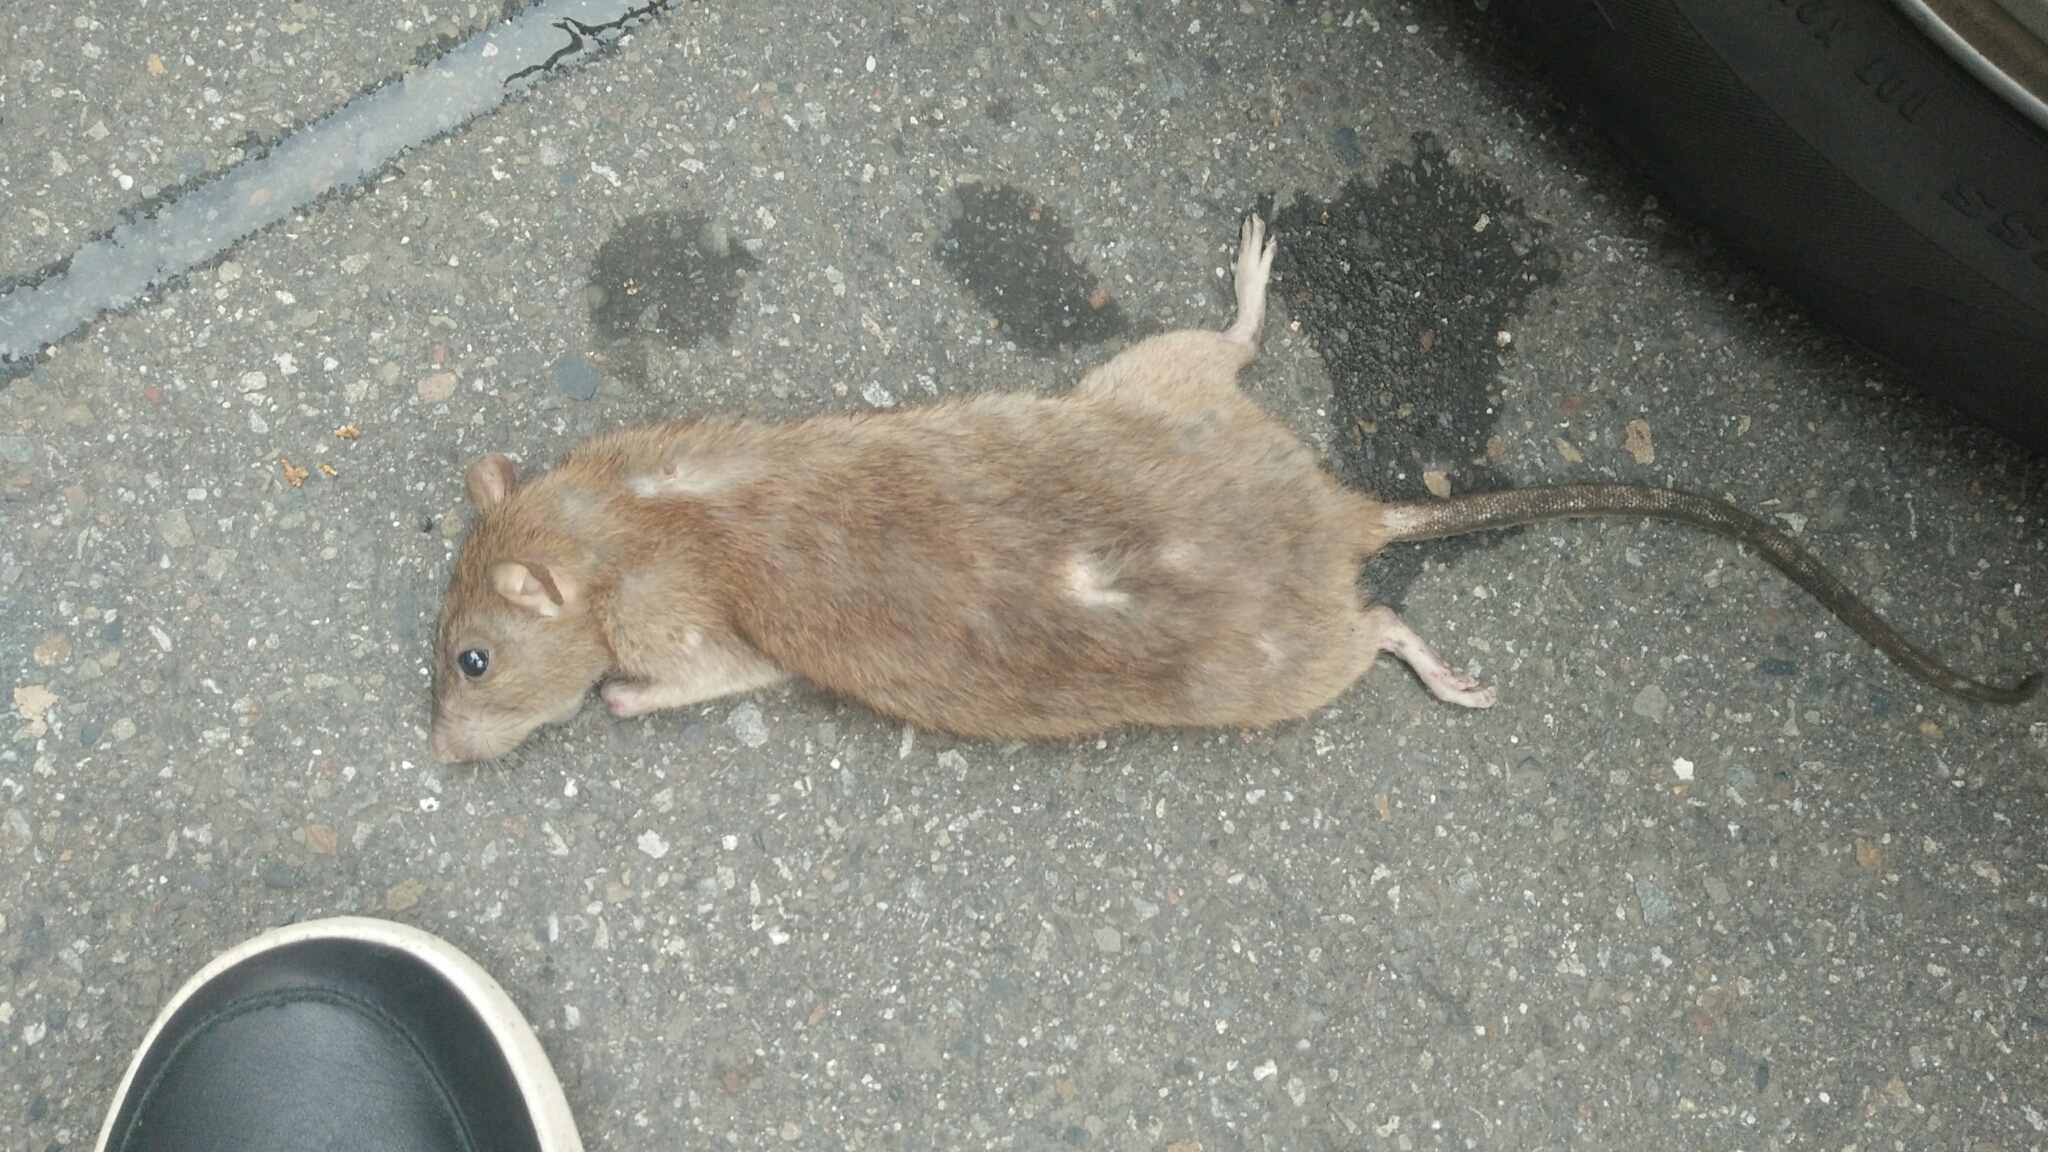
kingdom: Animalia
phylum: Chordata
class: Mammalia
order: Rodentia
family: Muridae
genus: Rattus
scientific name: Rattus norvegicus
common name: Brown rat
